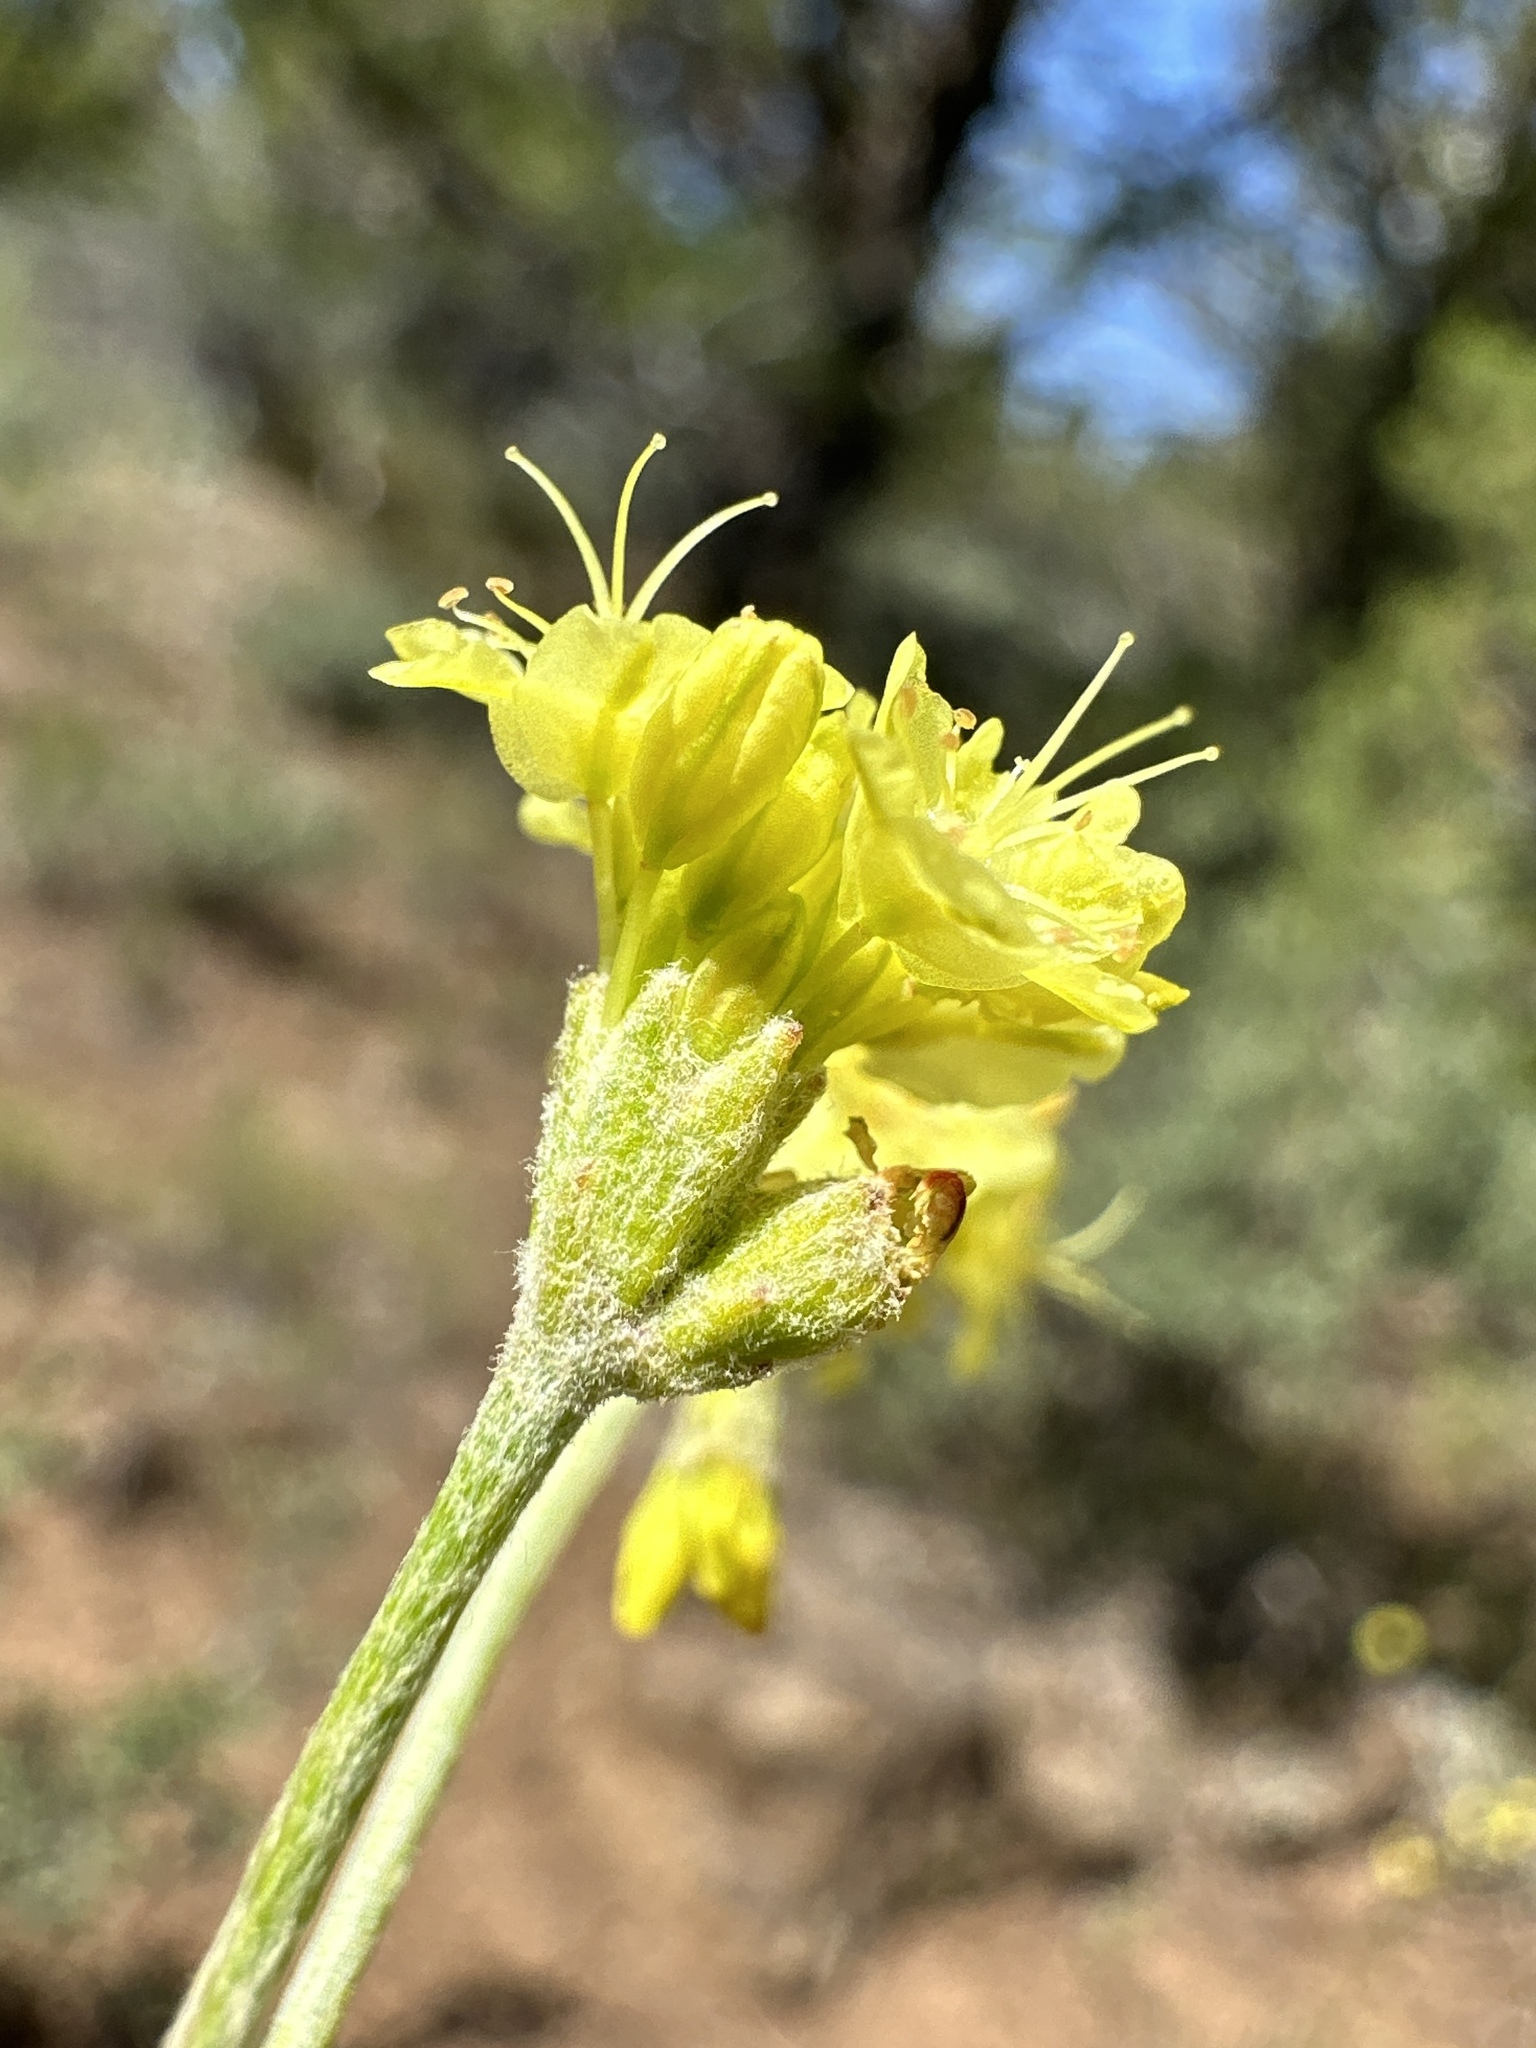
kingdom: Plantae
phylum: Tracheophyta
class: Magnoliopsida
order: Caryophyllales
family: Polygonaceae
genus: Eriogonum
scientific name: Eriogonum strictum
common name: Blue mountain buckwheat
